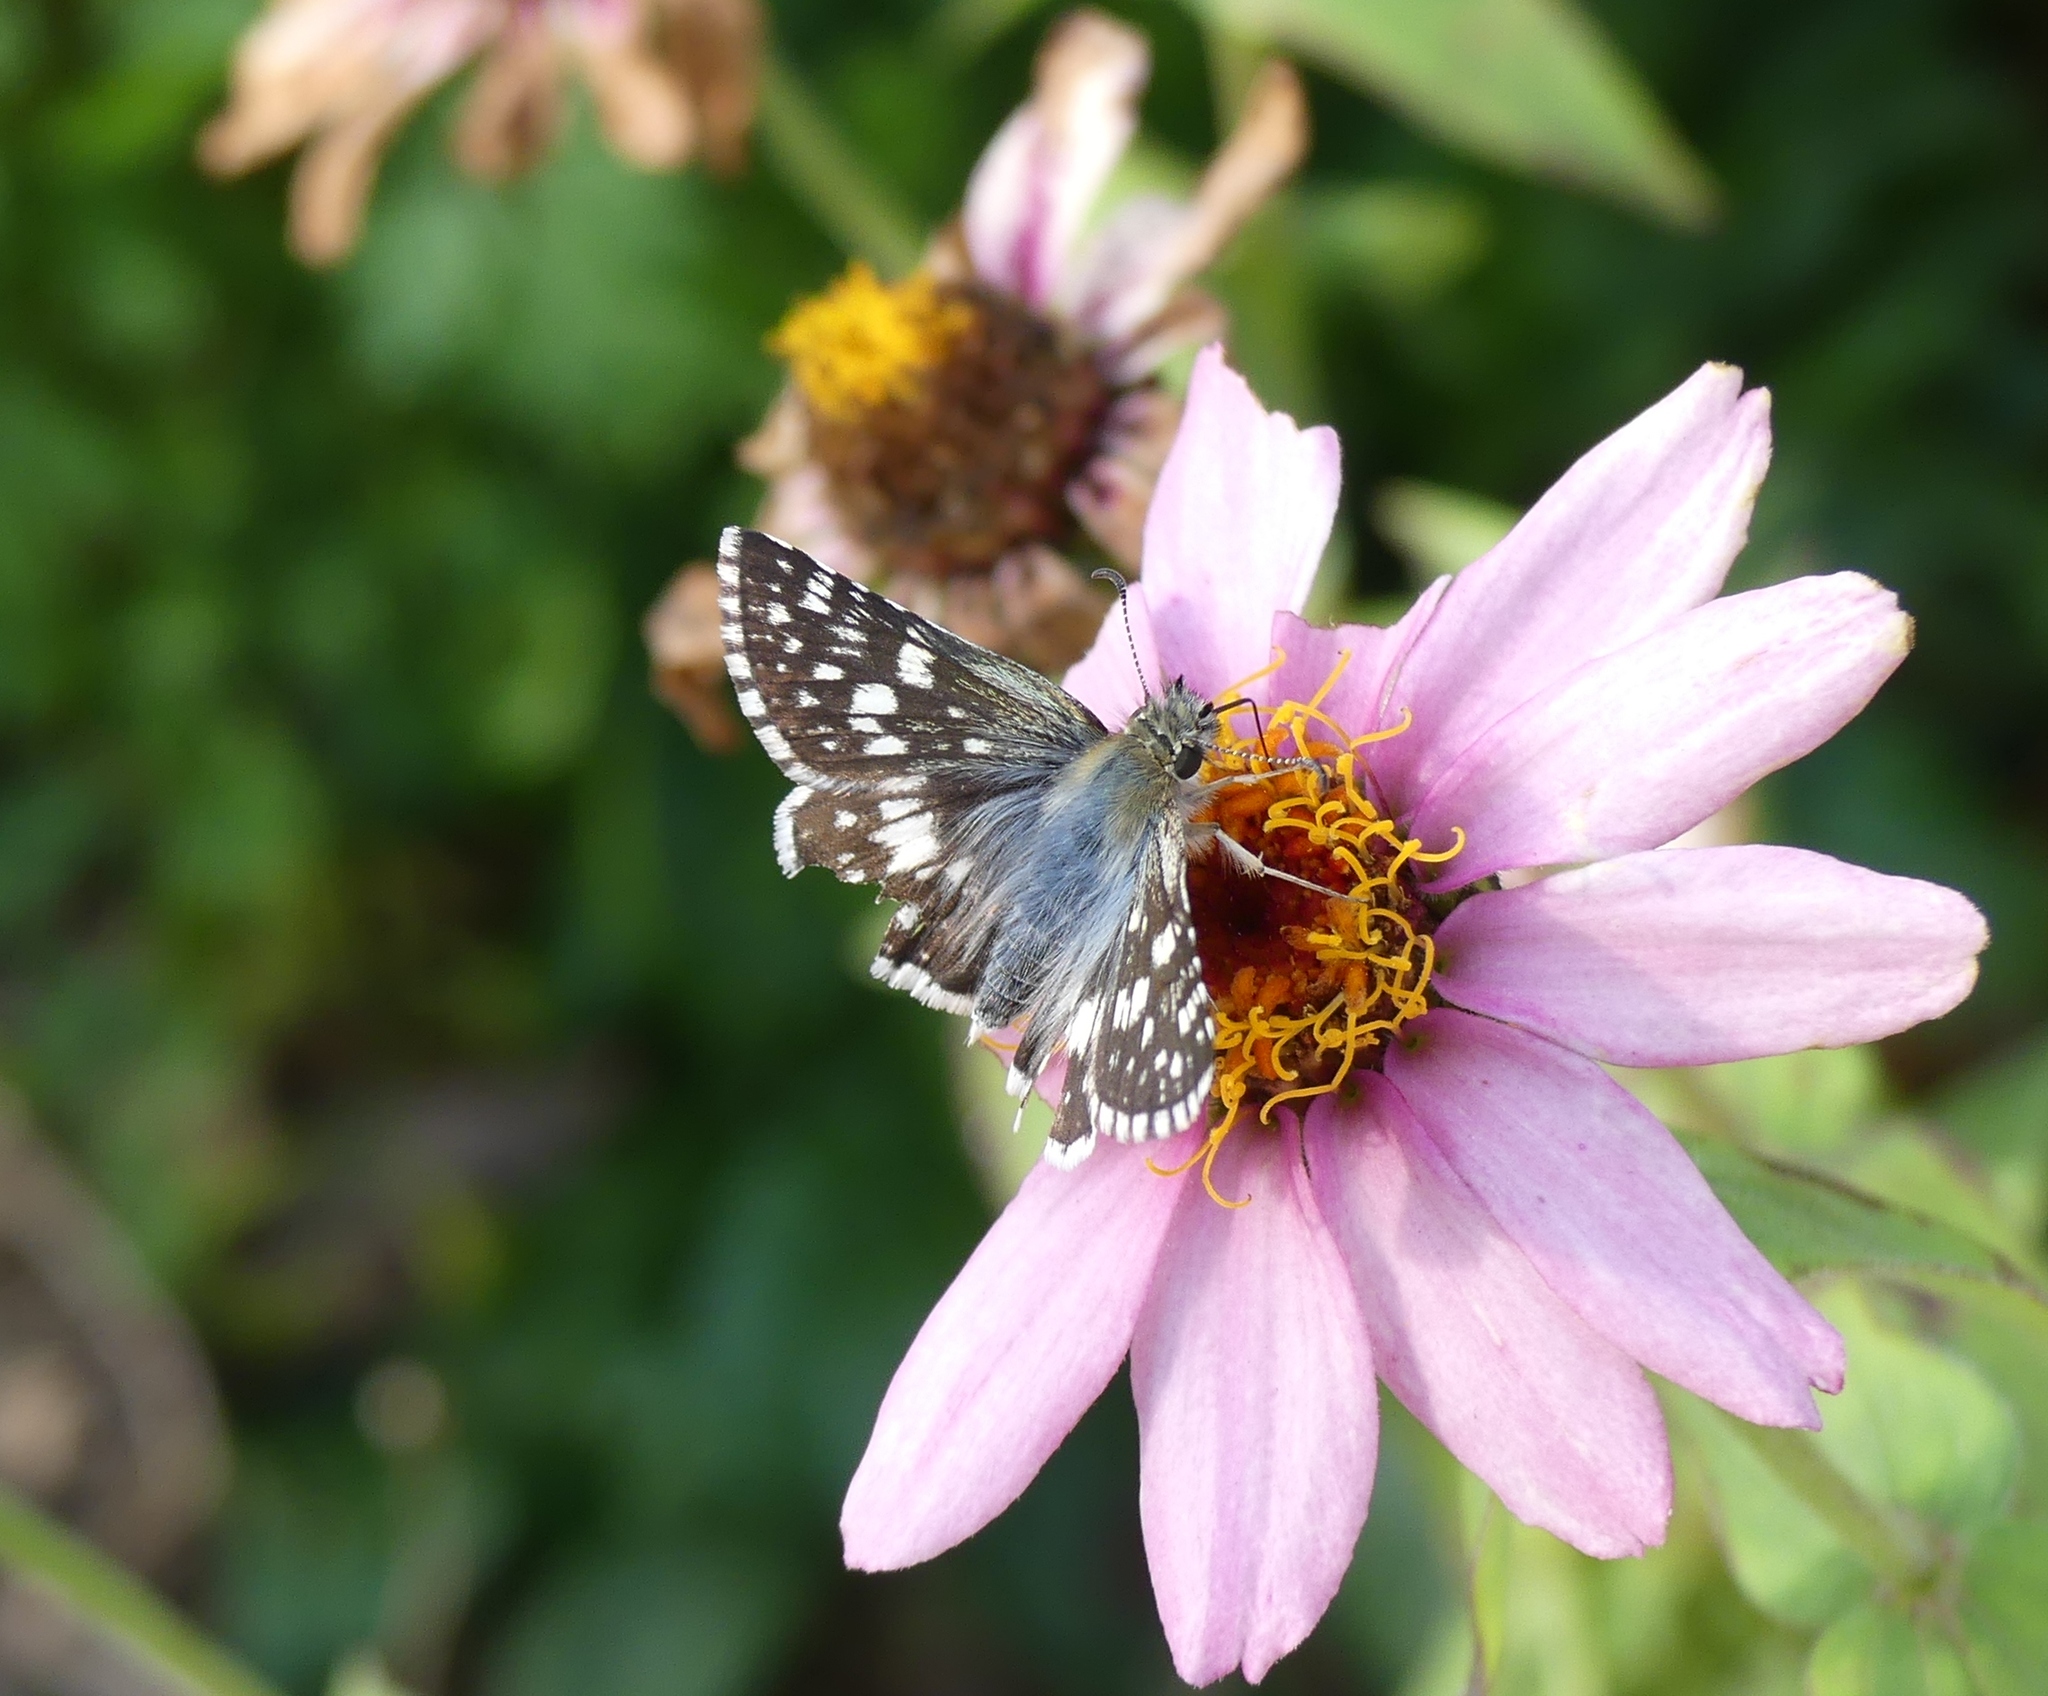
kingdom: Animalia
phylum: Arthropoda
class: Insecta
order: Lepidoptera
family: Hesperiidae
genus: Burnsius
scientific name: Burnsius communis
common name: Common checkered-skipper
